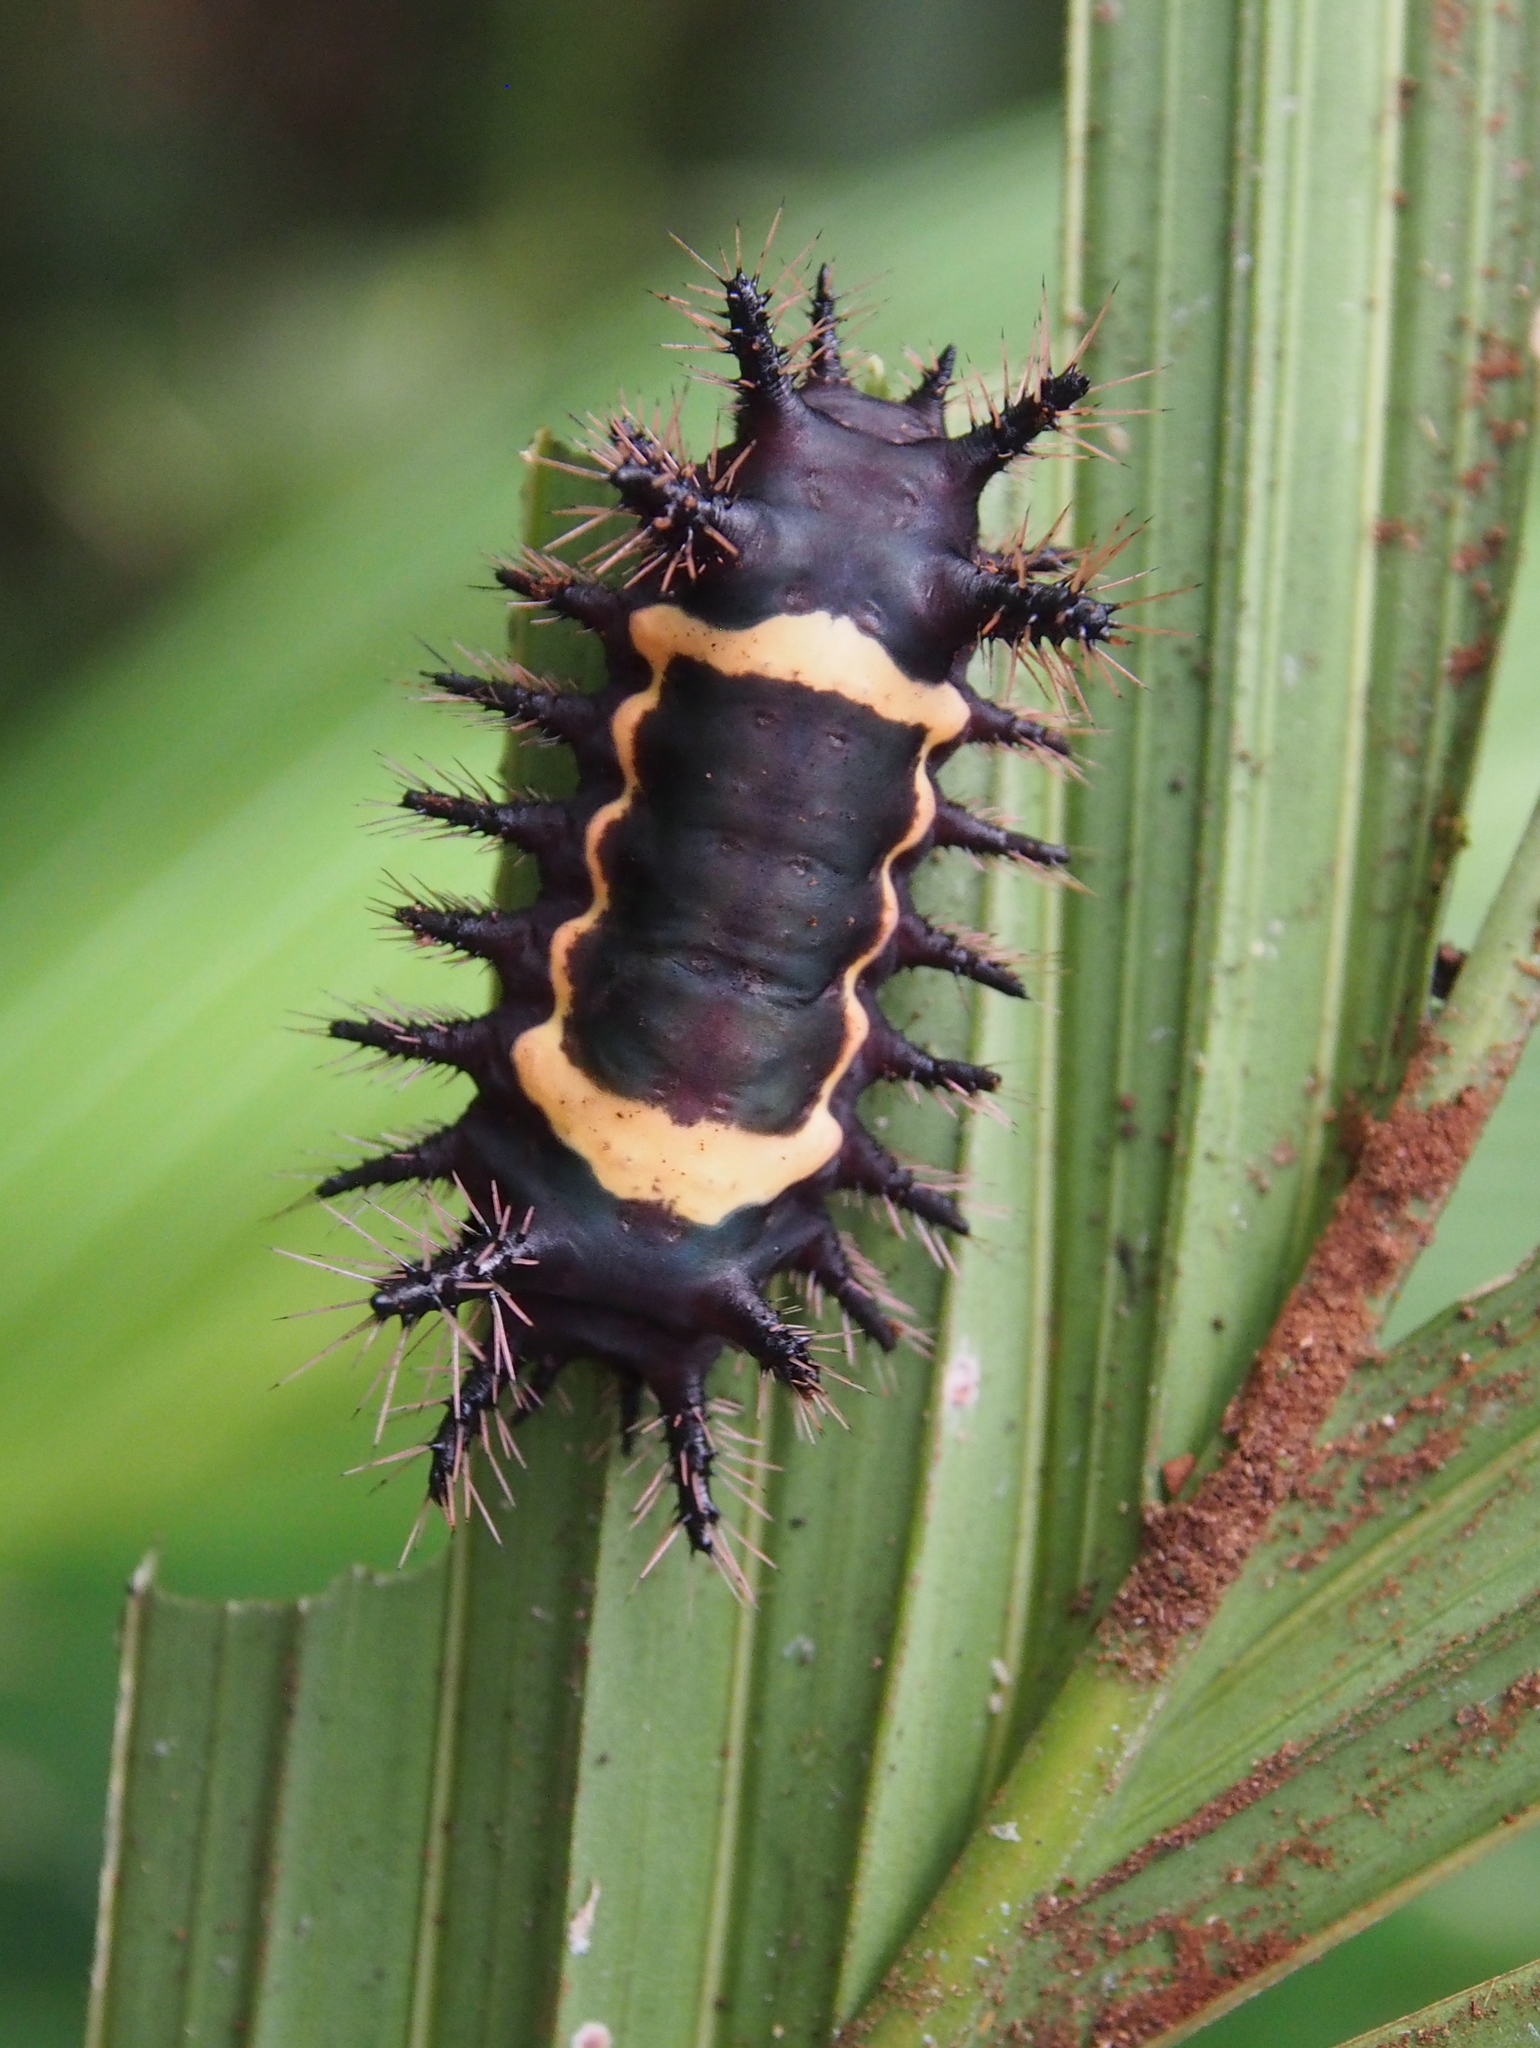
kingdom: Animalia
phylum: Arthropoda
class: Insecta
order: Lepidoptera
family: Limacodidae
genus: Sibine
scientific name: Sibine nesea
